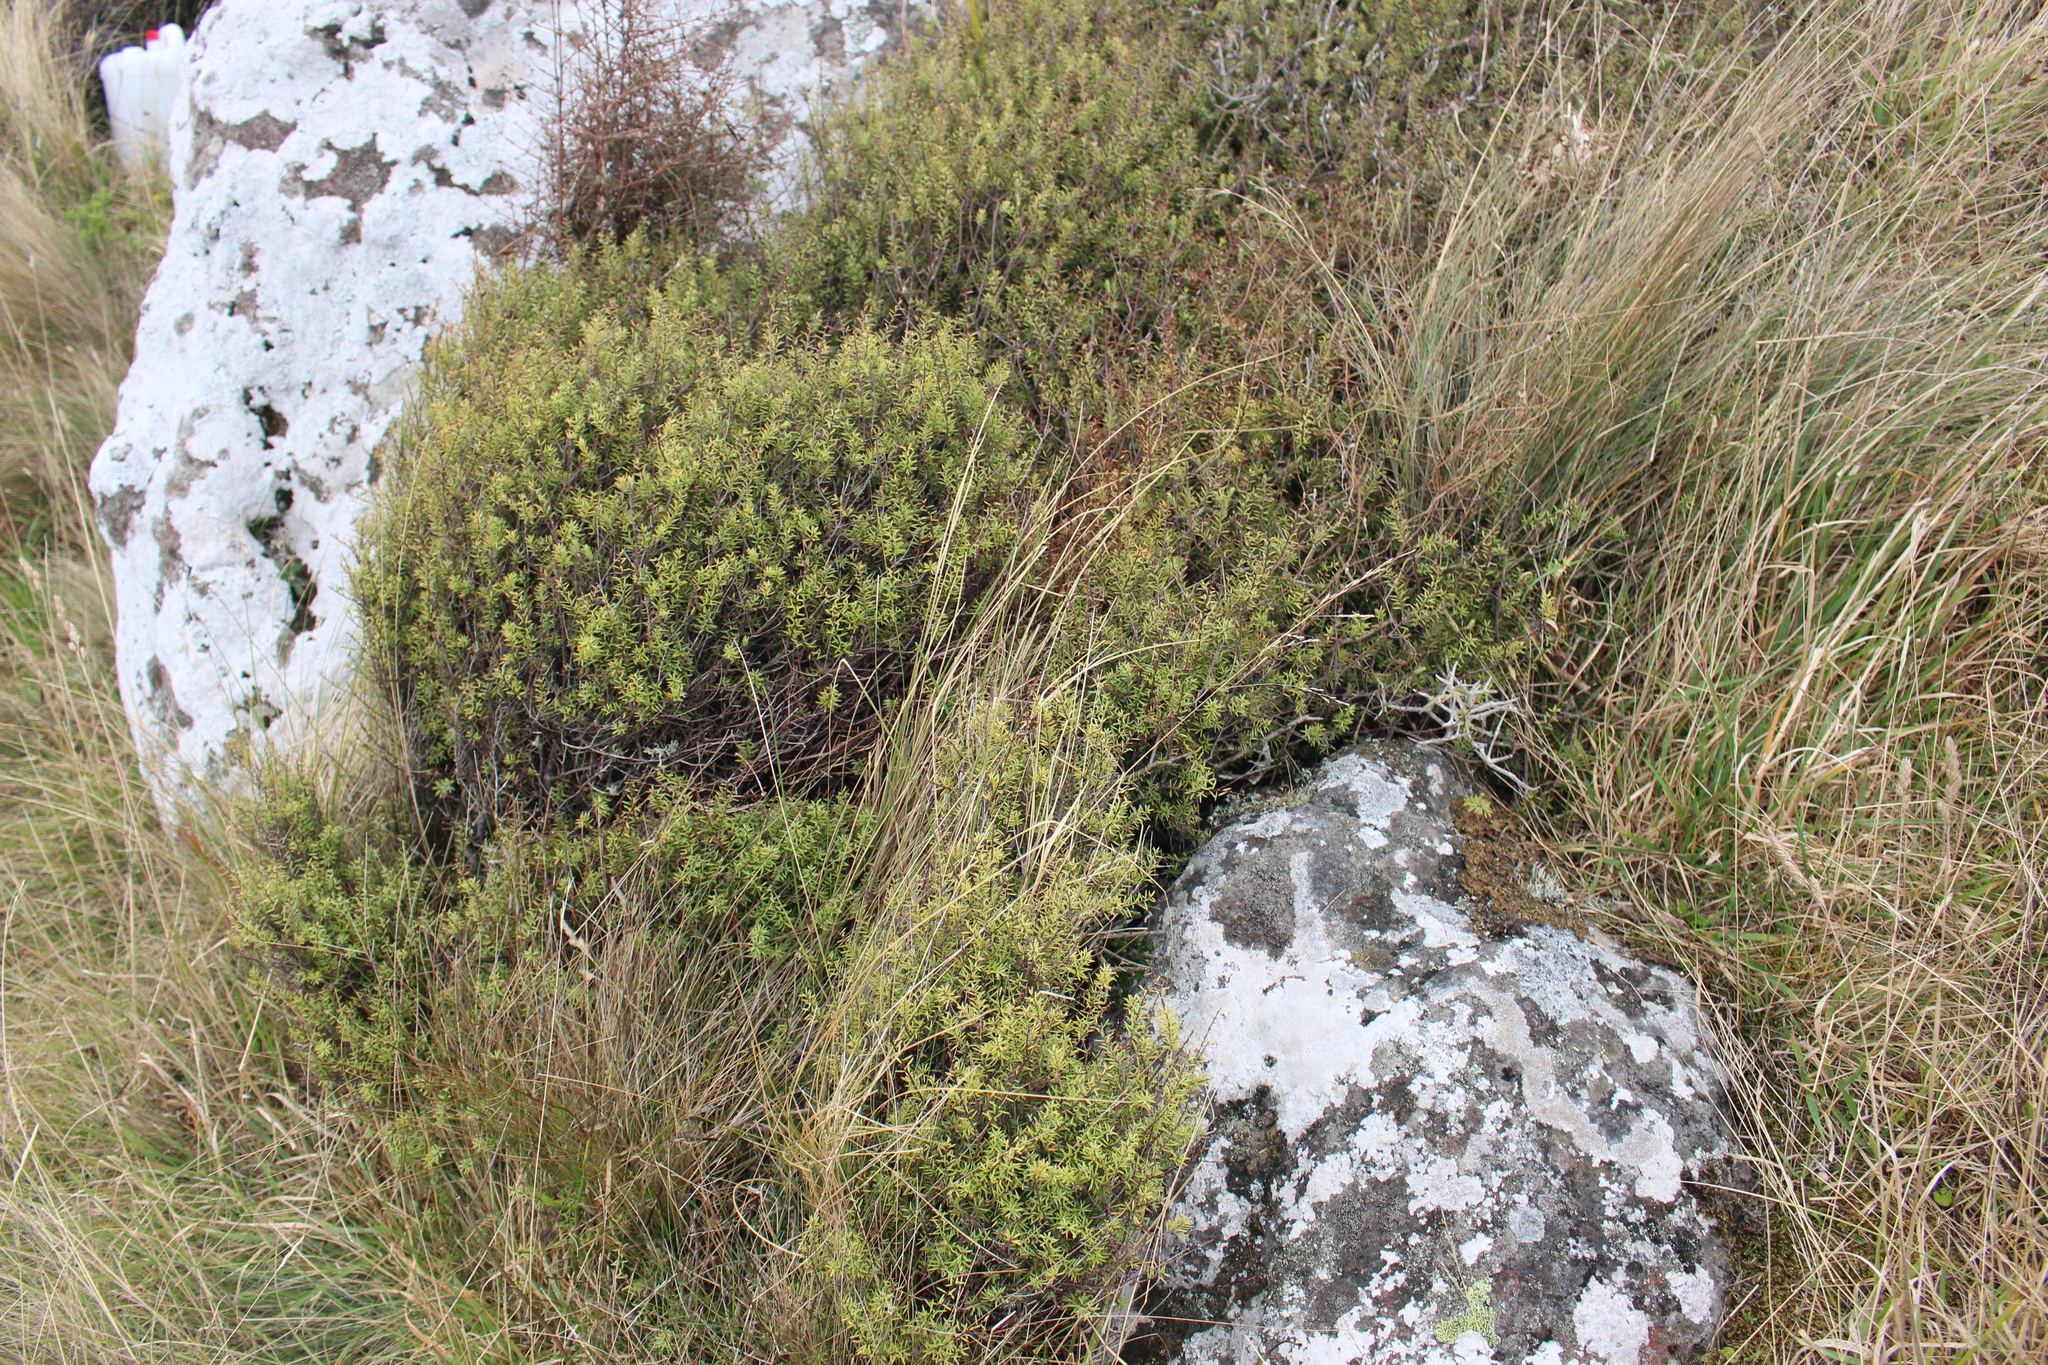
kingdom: Plantae
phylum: Tracheophyta
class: Magnoliopsida
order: Ericales
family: Ericaceae
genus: Leptecophylla
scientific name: Leptecophylla juniperina
